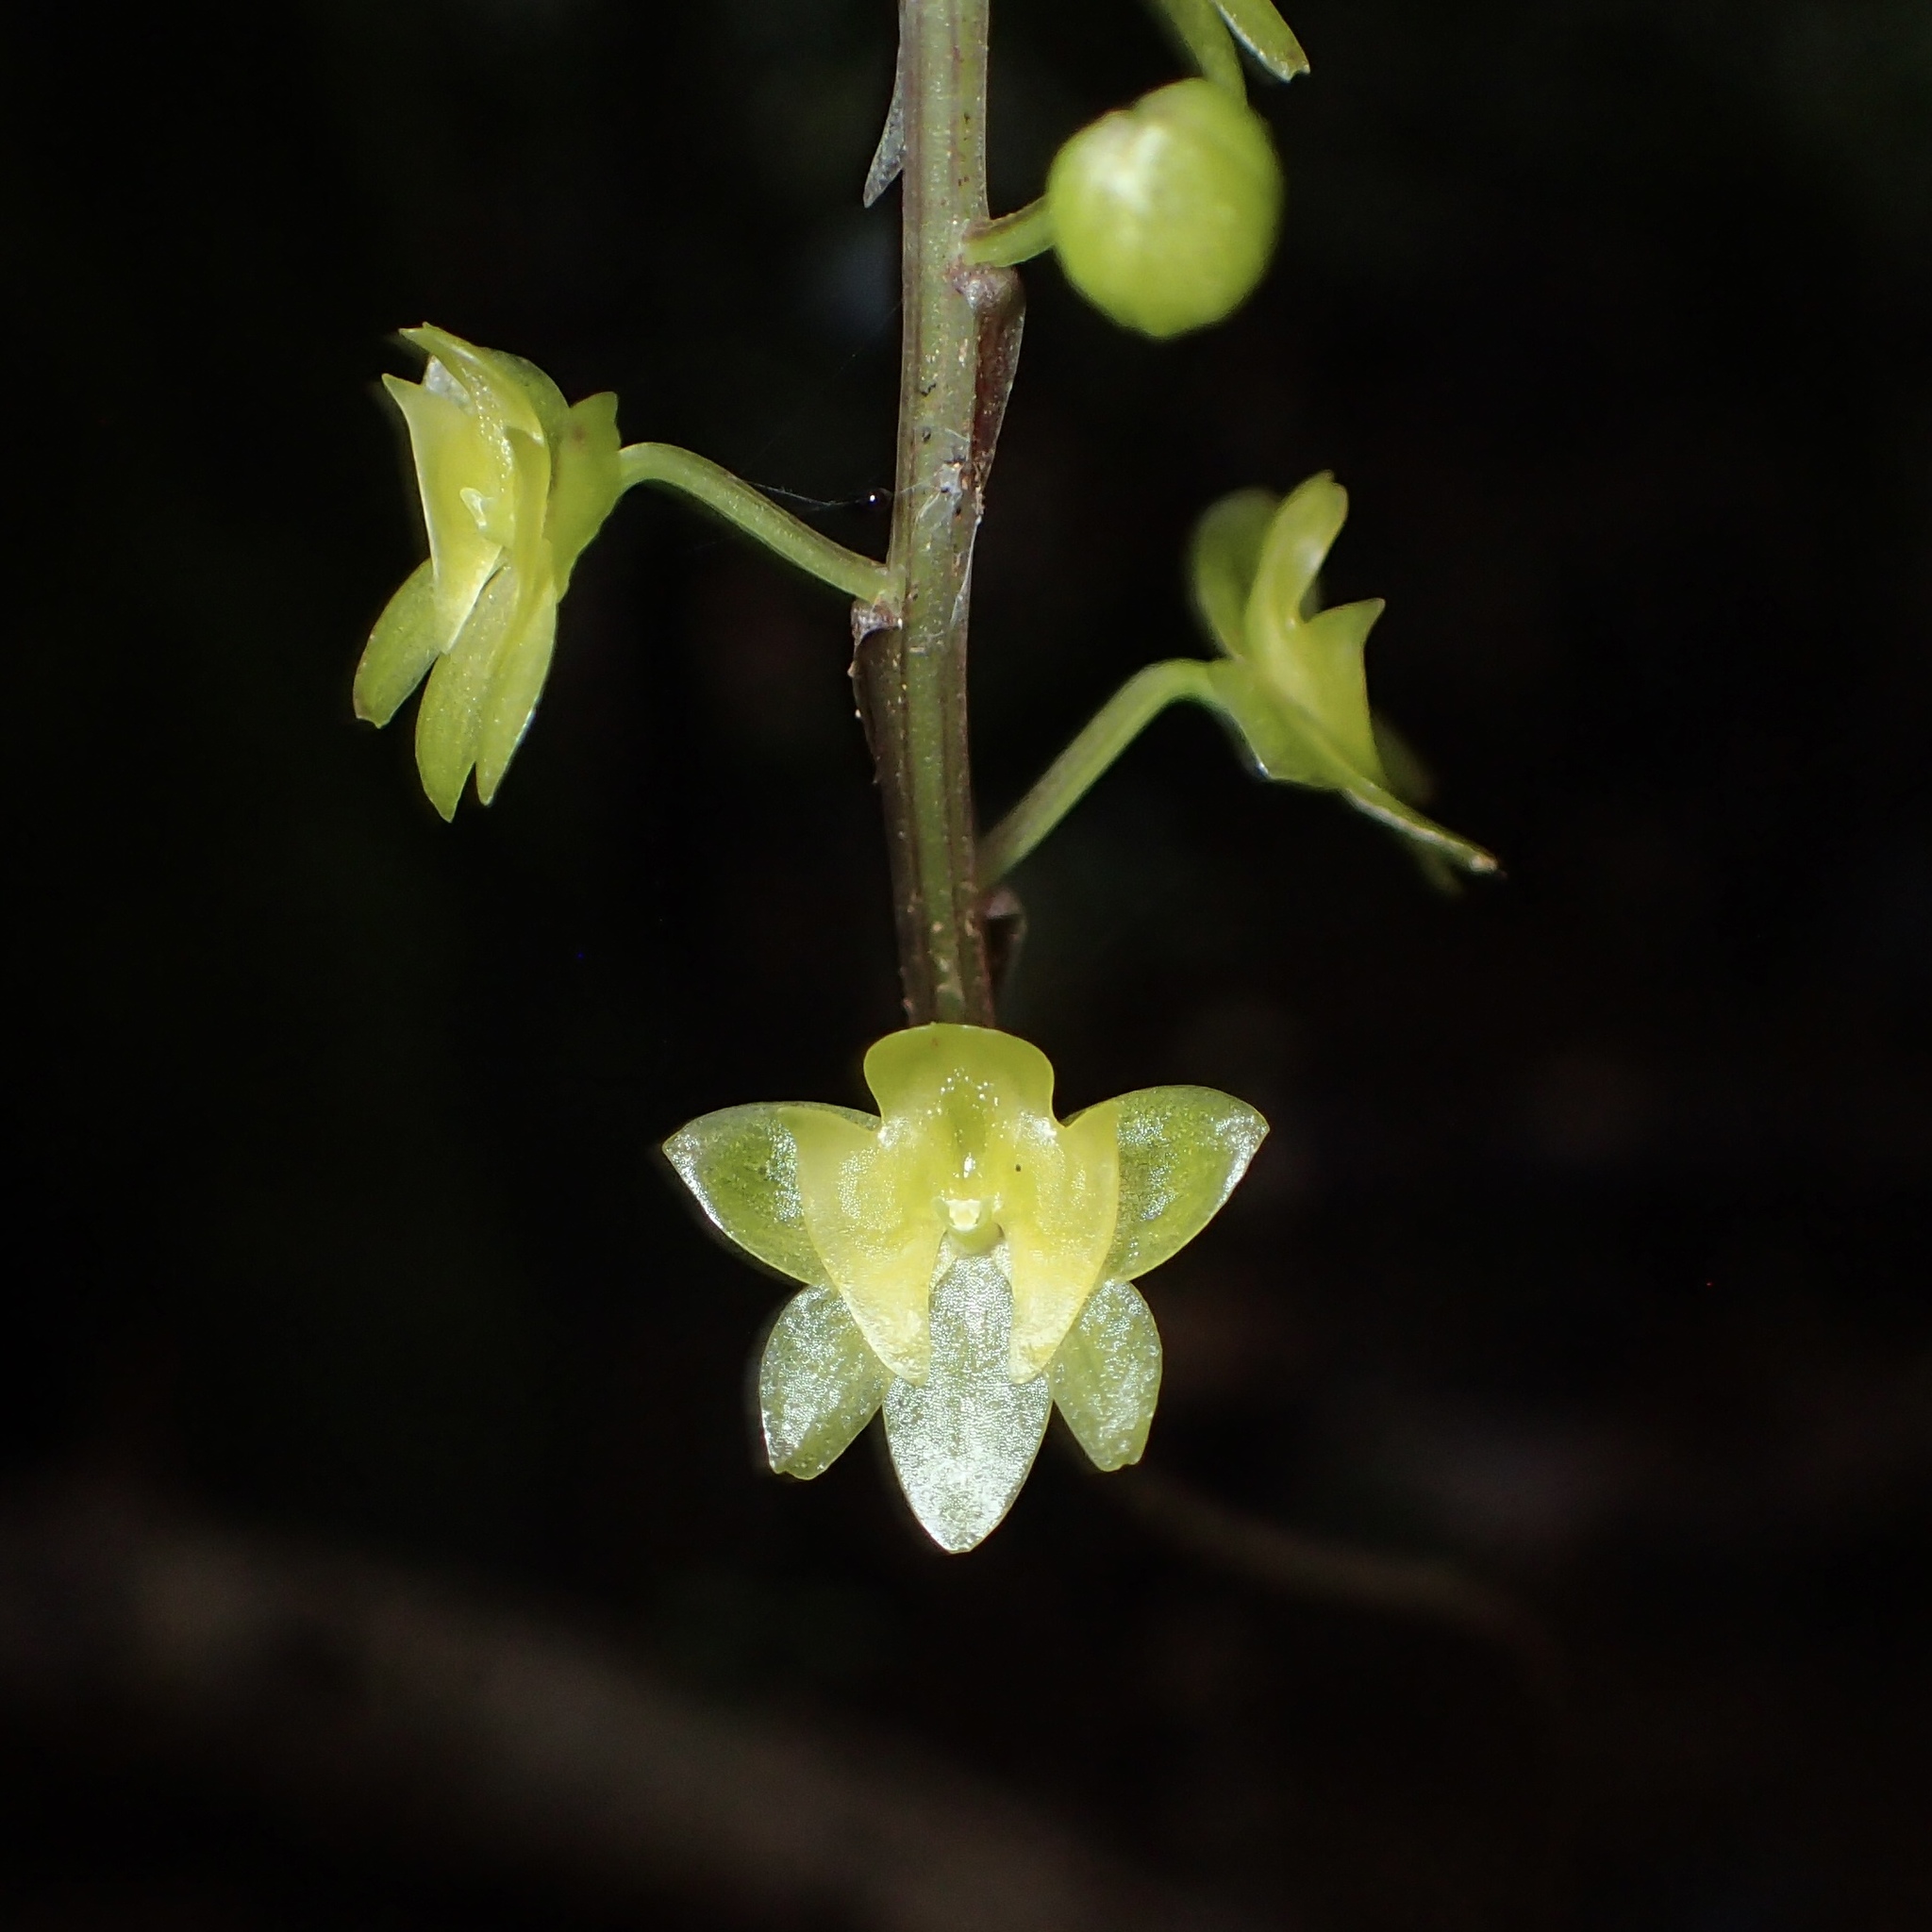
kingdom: Plantae
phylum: Tracheophyta
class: Liliopsida
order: Asparagales
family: Orchidaceae
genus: Crepidium
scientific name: Crepidium taurinum
